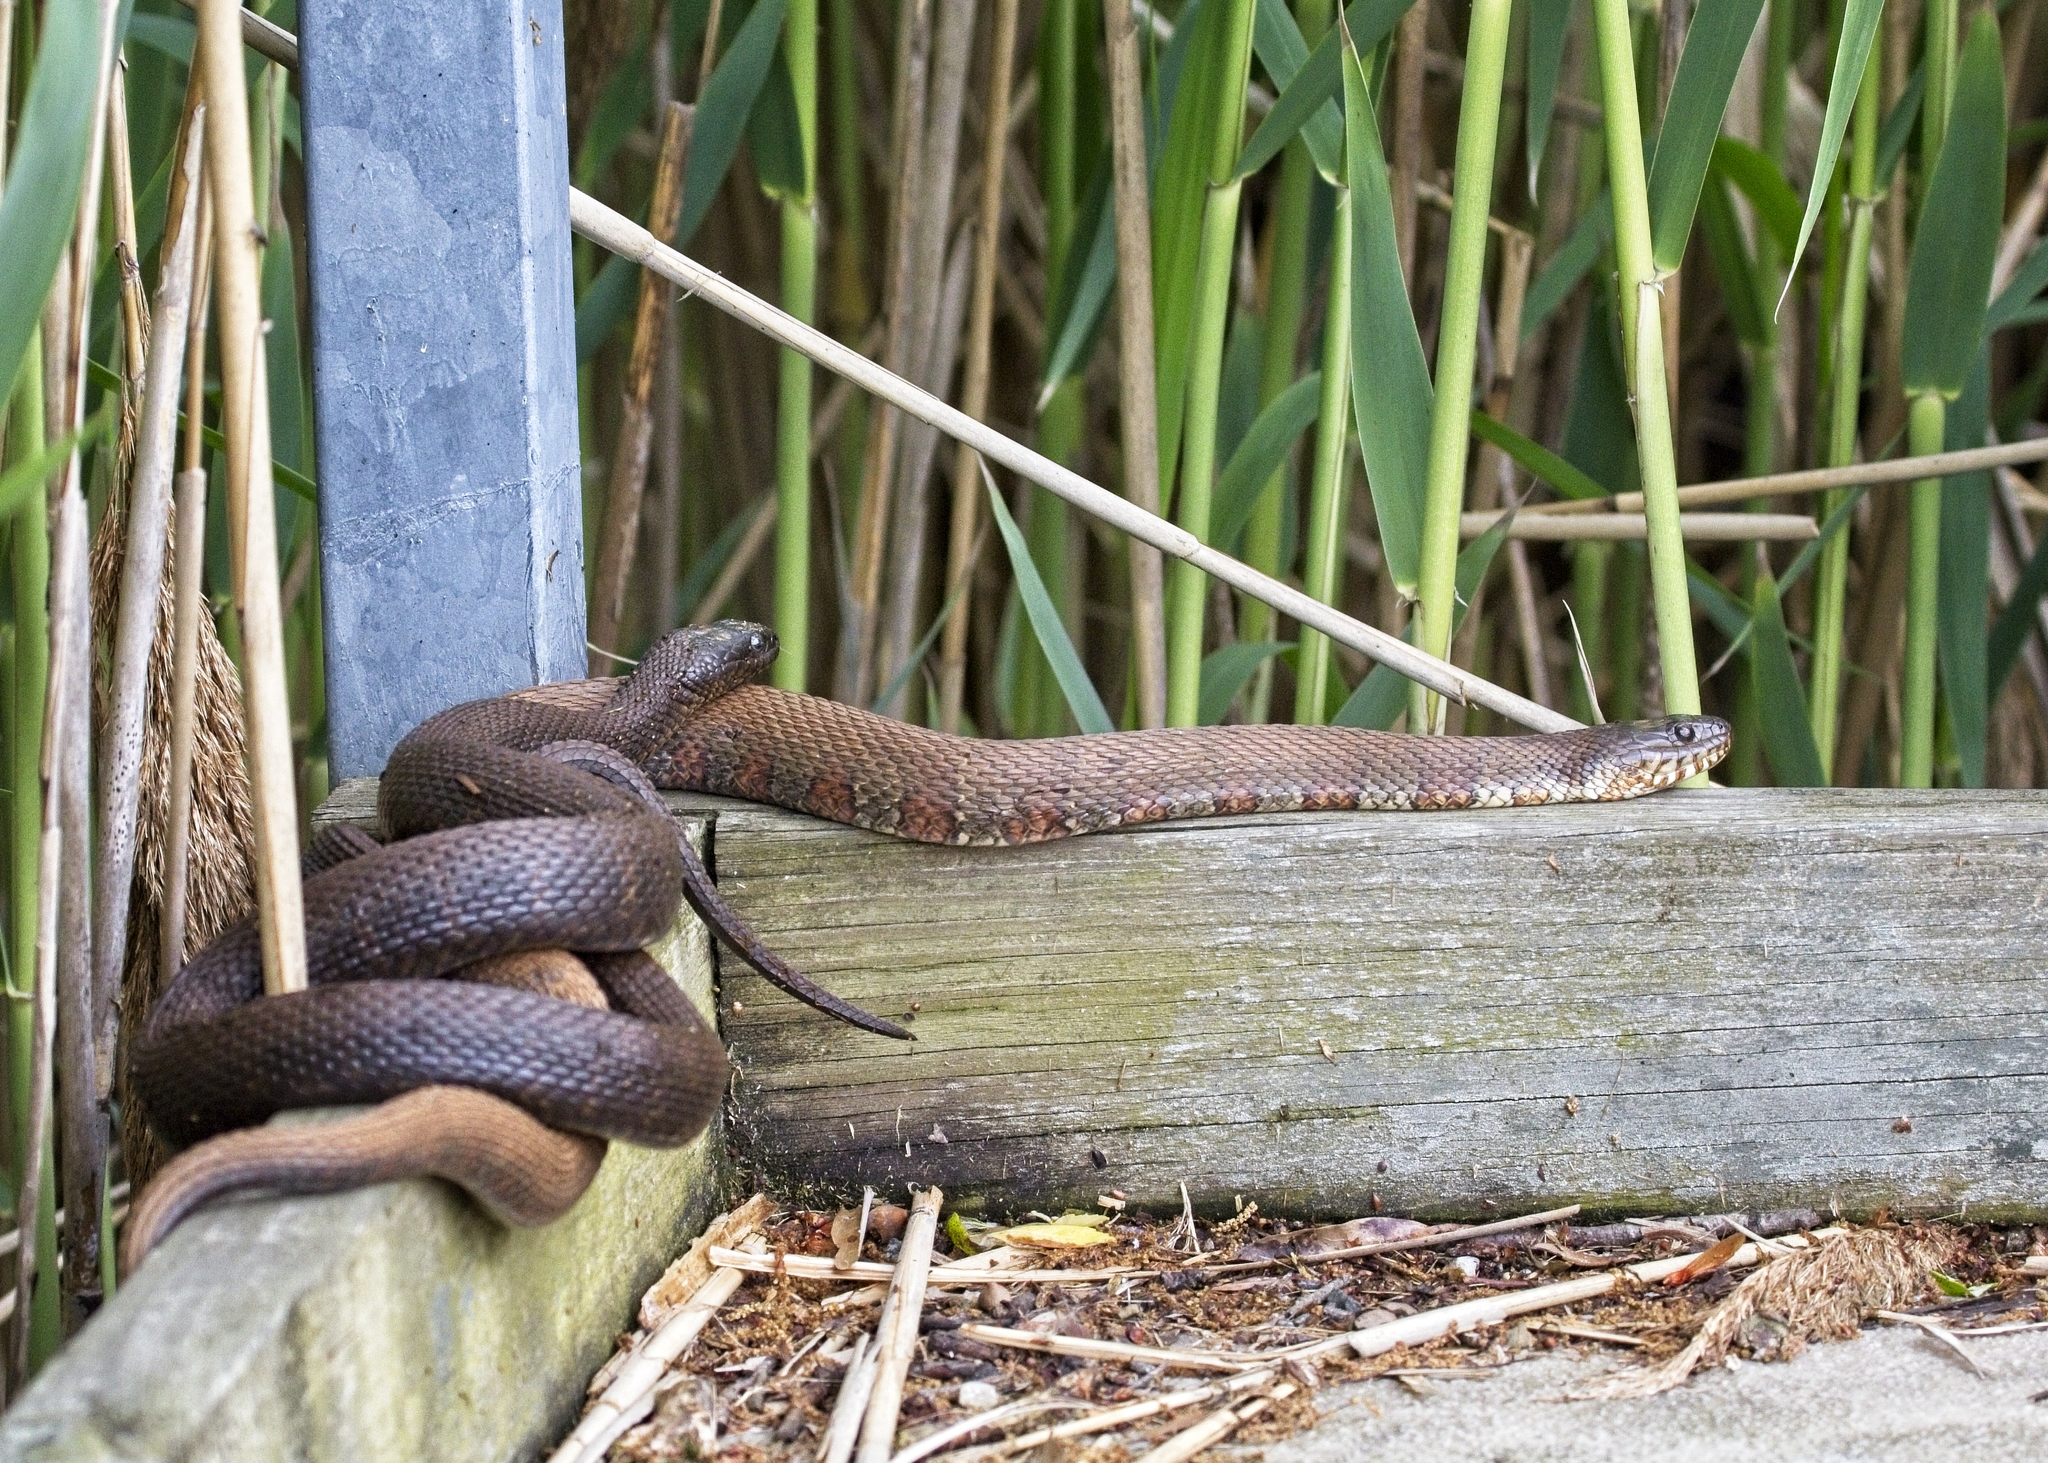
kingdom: Animalia
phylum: Chordata
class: Squamata
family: Colubridae
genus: Nerodia
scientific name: Nerodia sipedon
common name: Northern water snake
